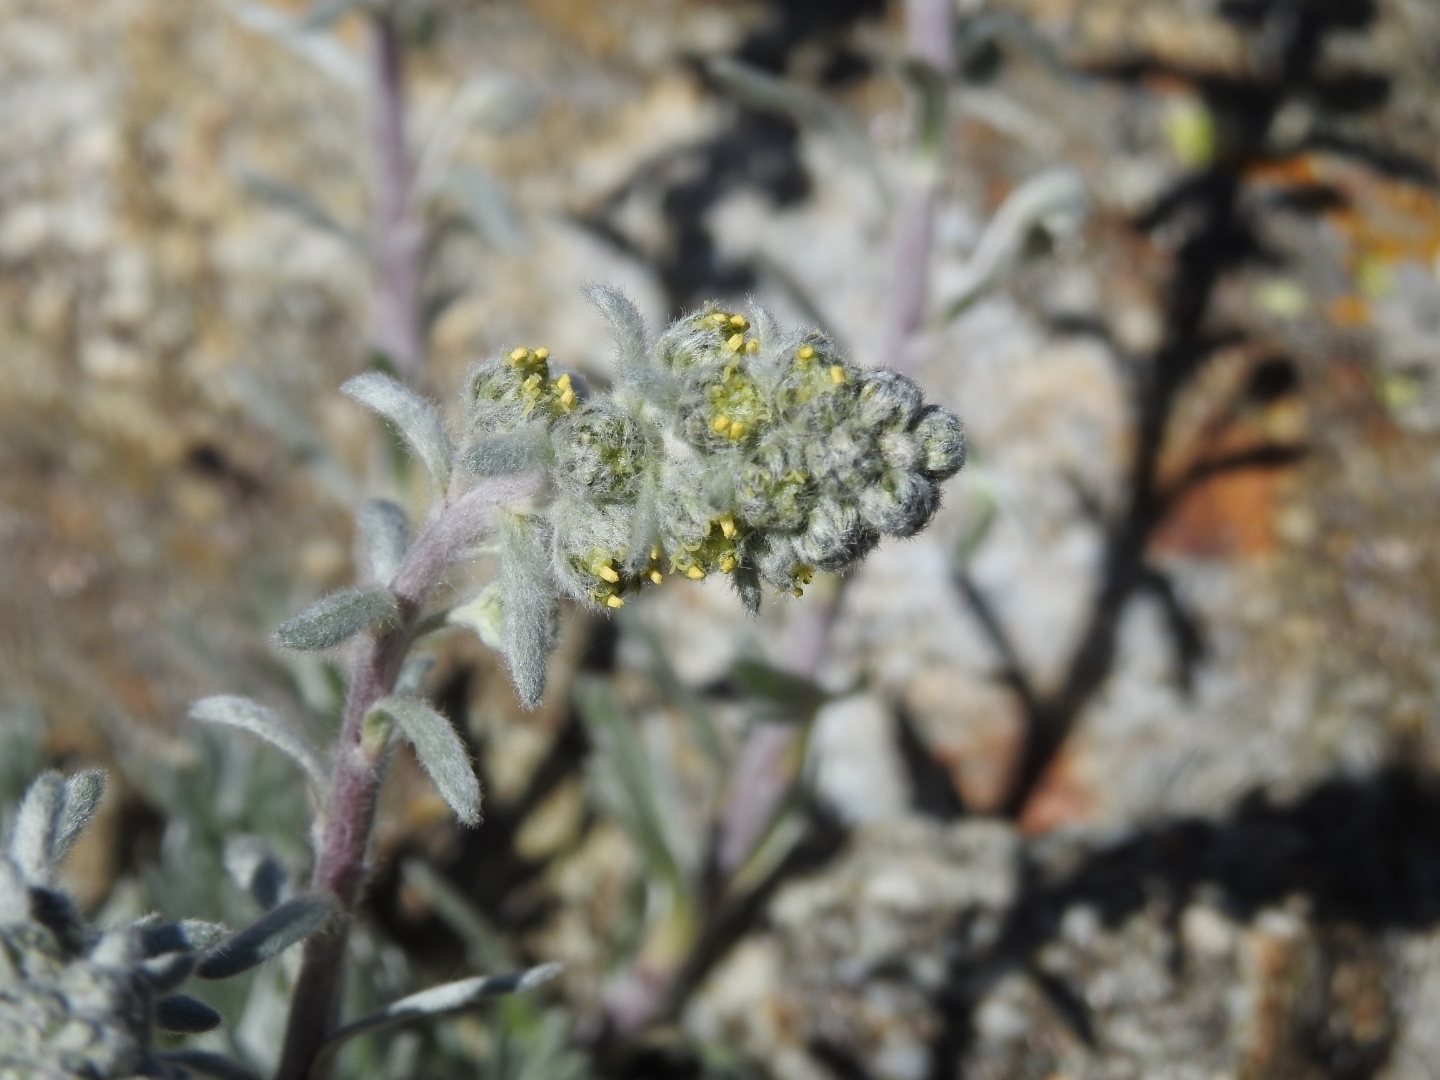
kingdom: Plantae
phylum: Tracheophyta
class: Magnoliopsida
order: Asterales
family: Asteraceae
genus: Artemisia
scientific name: Artemisia genipi
